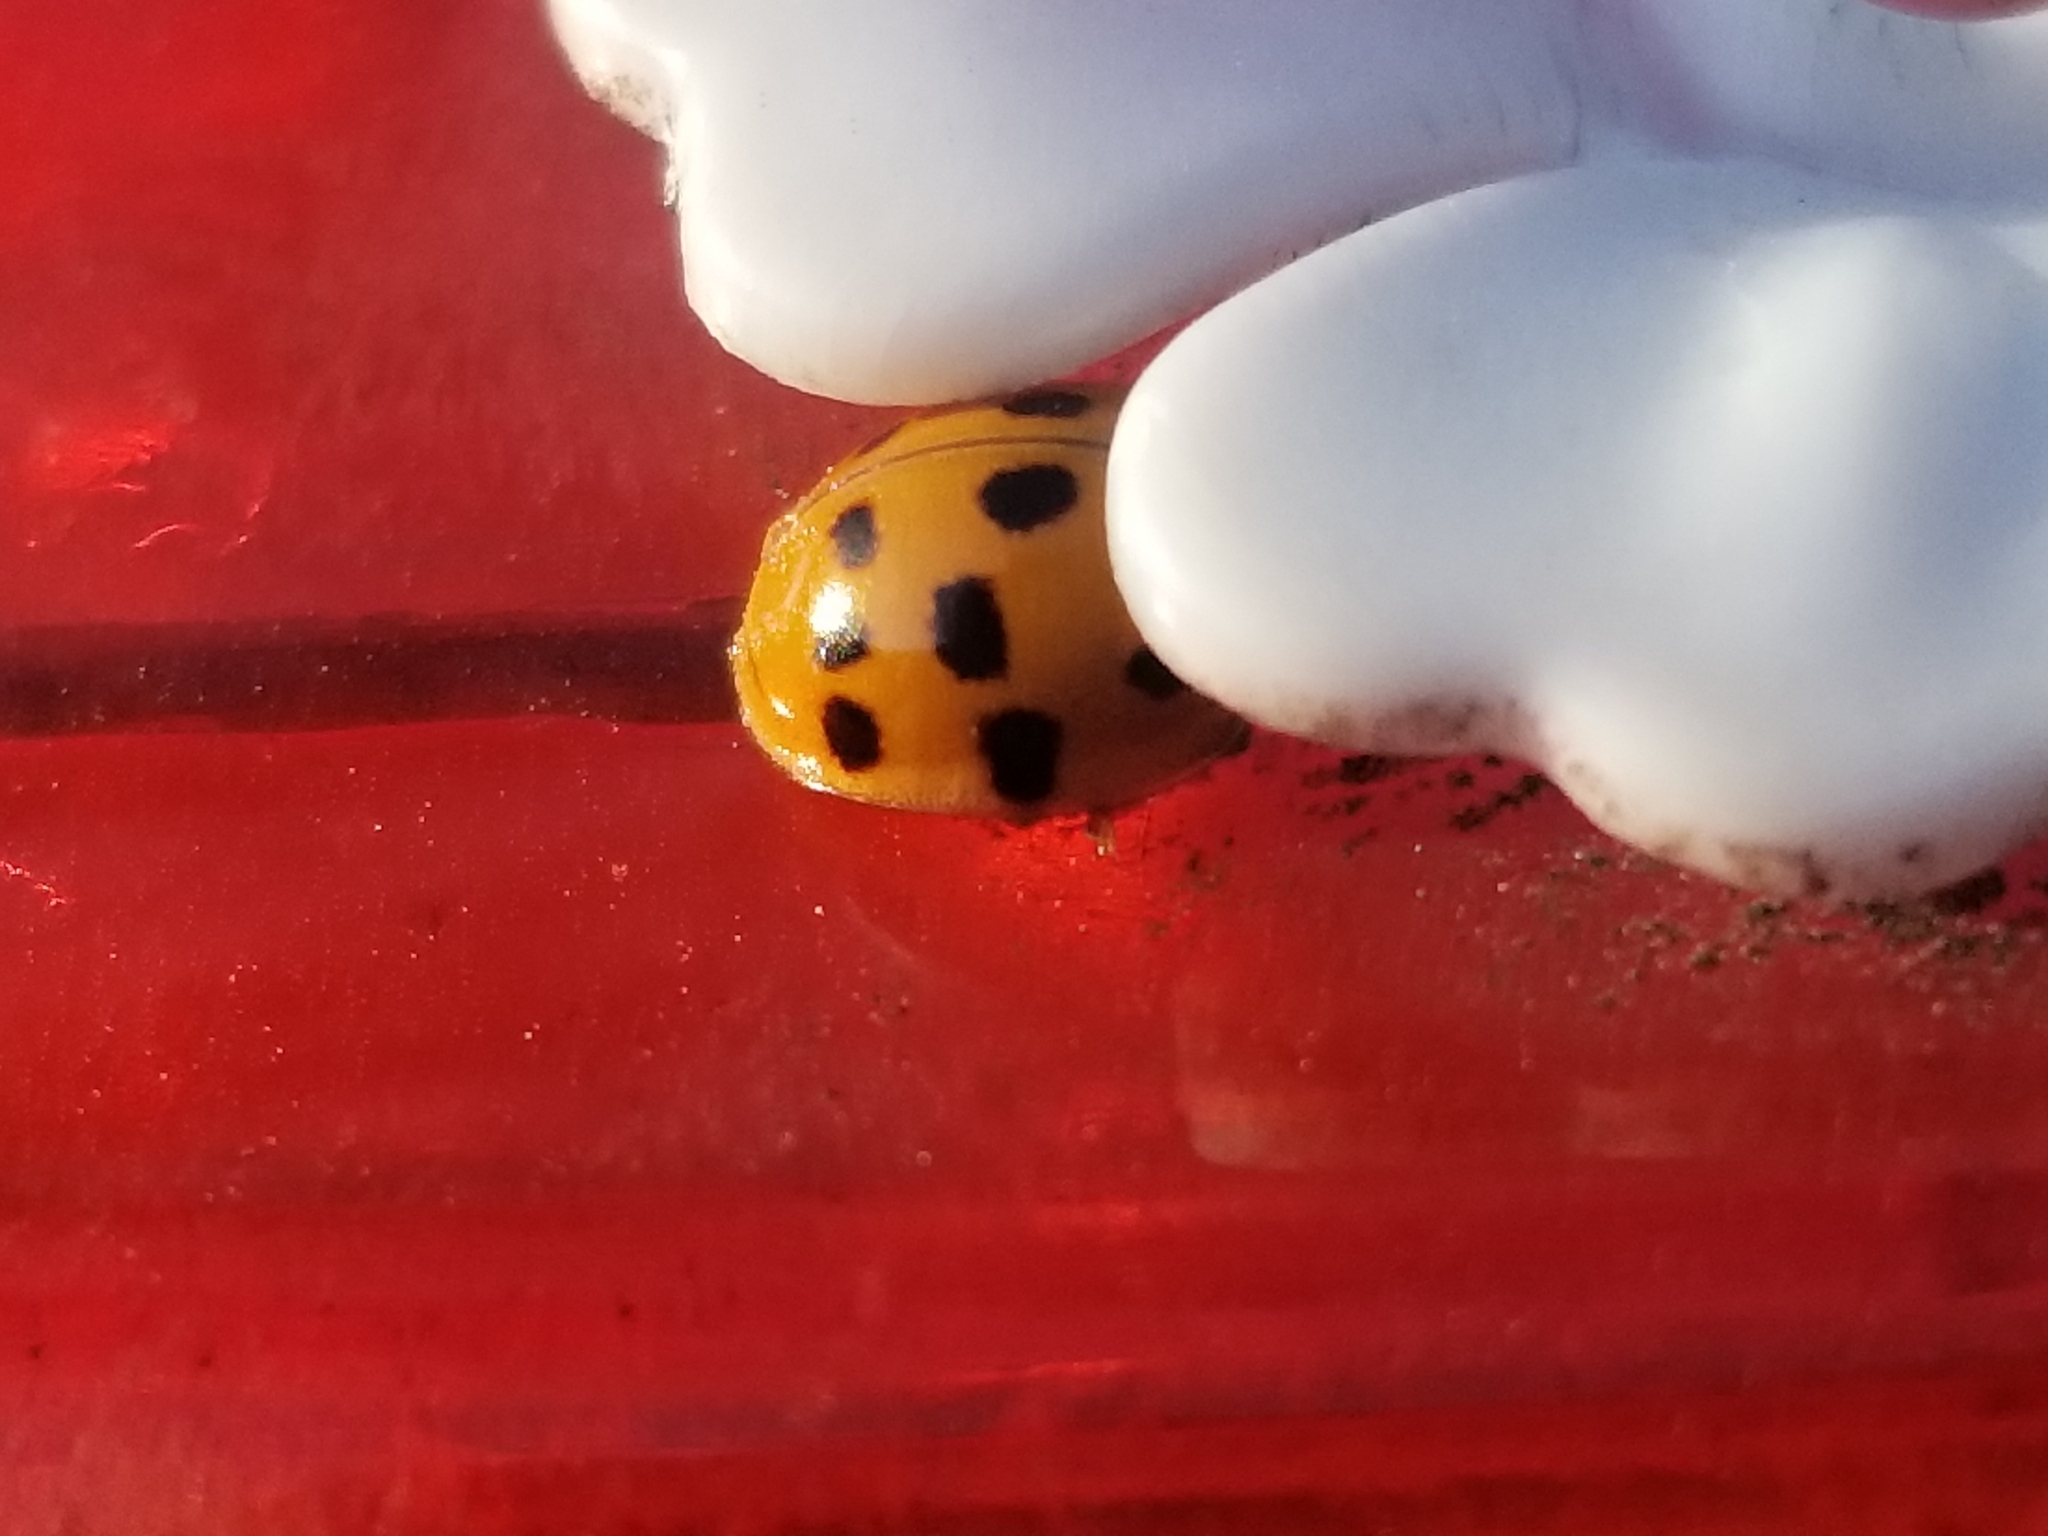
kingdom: Animalia
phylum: Arthropoda
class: Insecta
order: Coleoptera
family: Coccinellidae
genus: Harmonia
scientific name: Harmonia axyridis
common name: Harlequin ladybird
